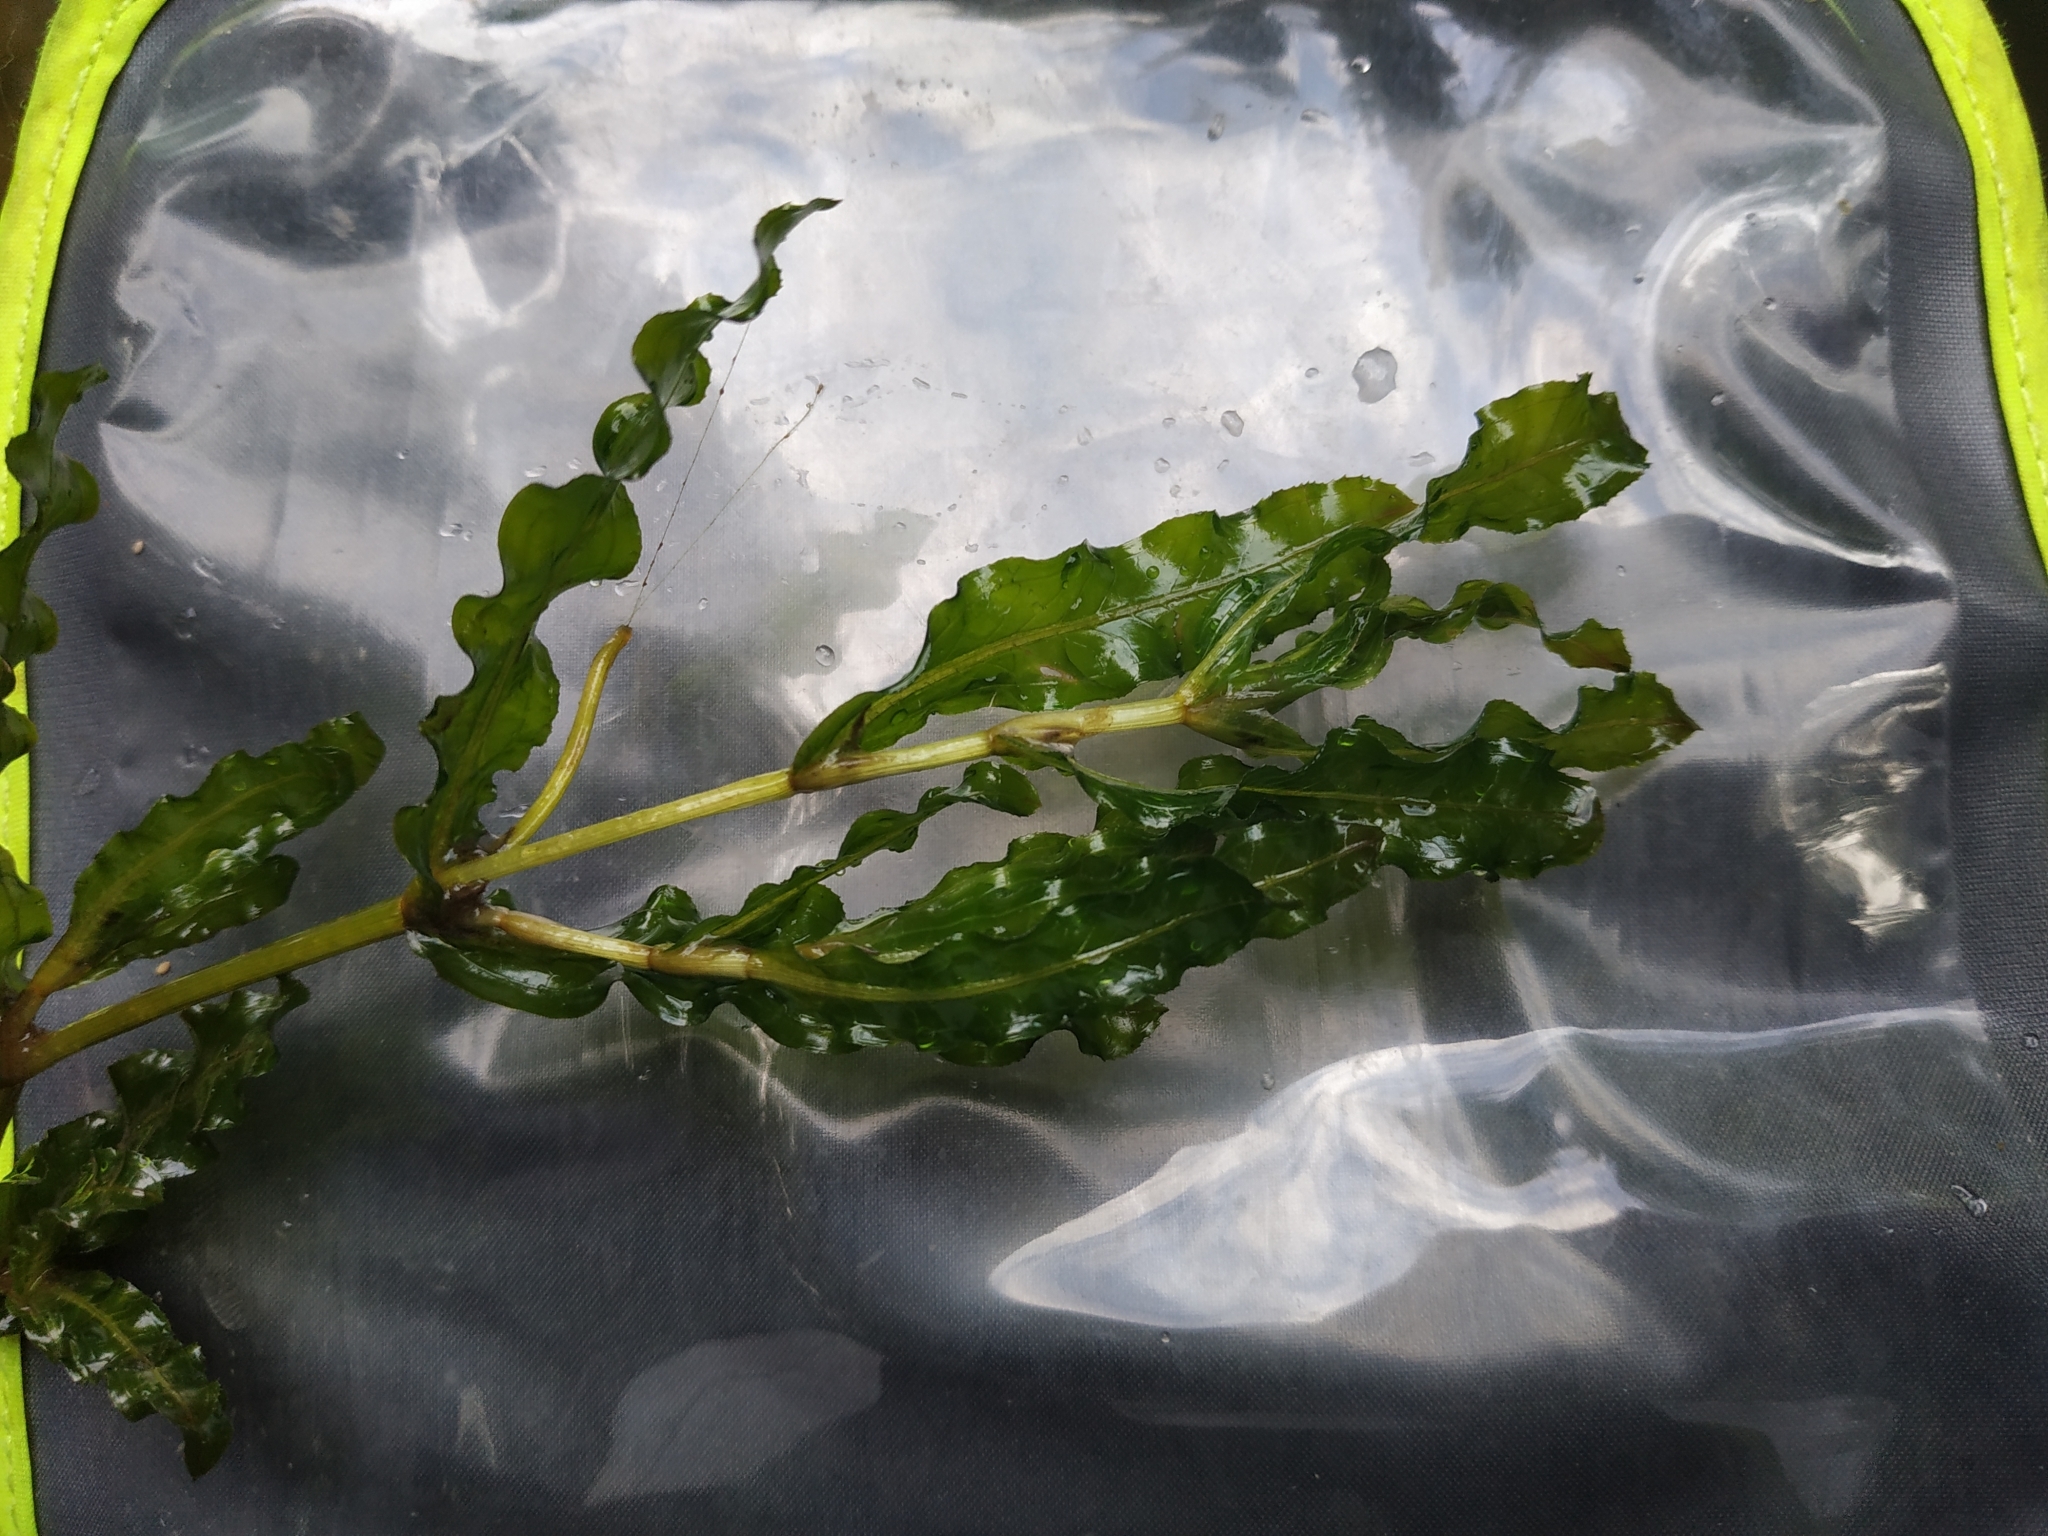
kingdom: Plantae
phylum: Tracheophyta
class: Liliopsida
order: Alismatales
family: Potamogetonaceae
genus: Potamogeton
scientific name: Potamogeton crispus
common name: Curled pondweed
